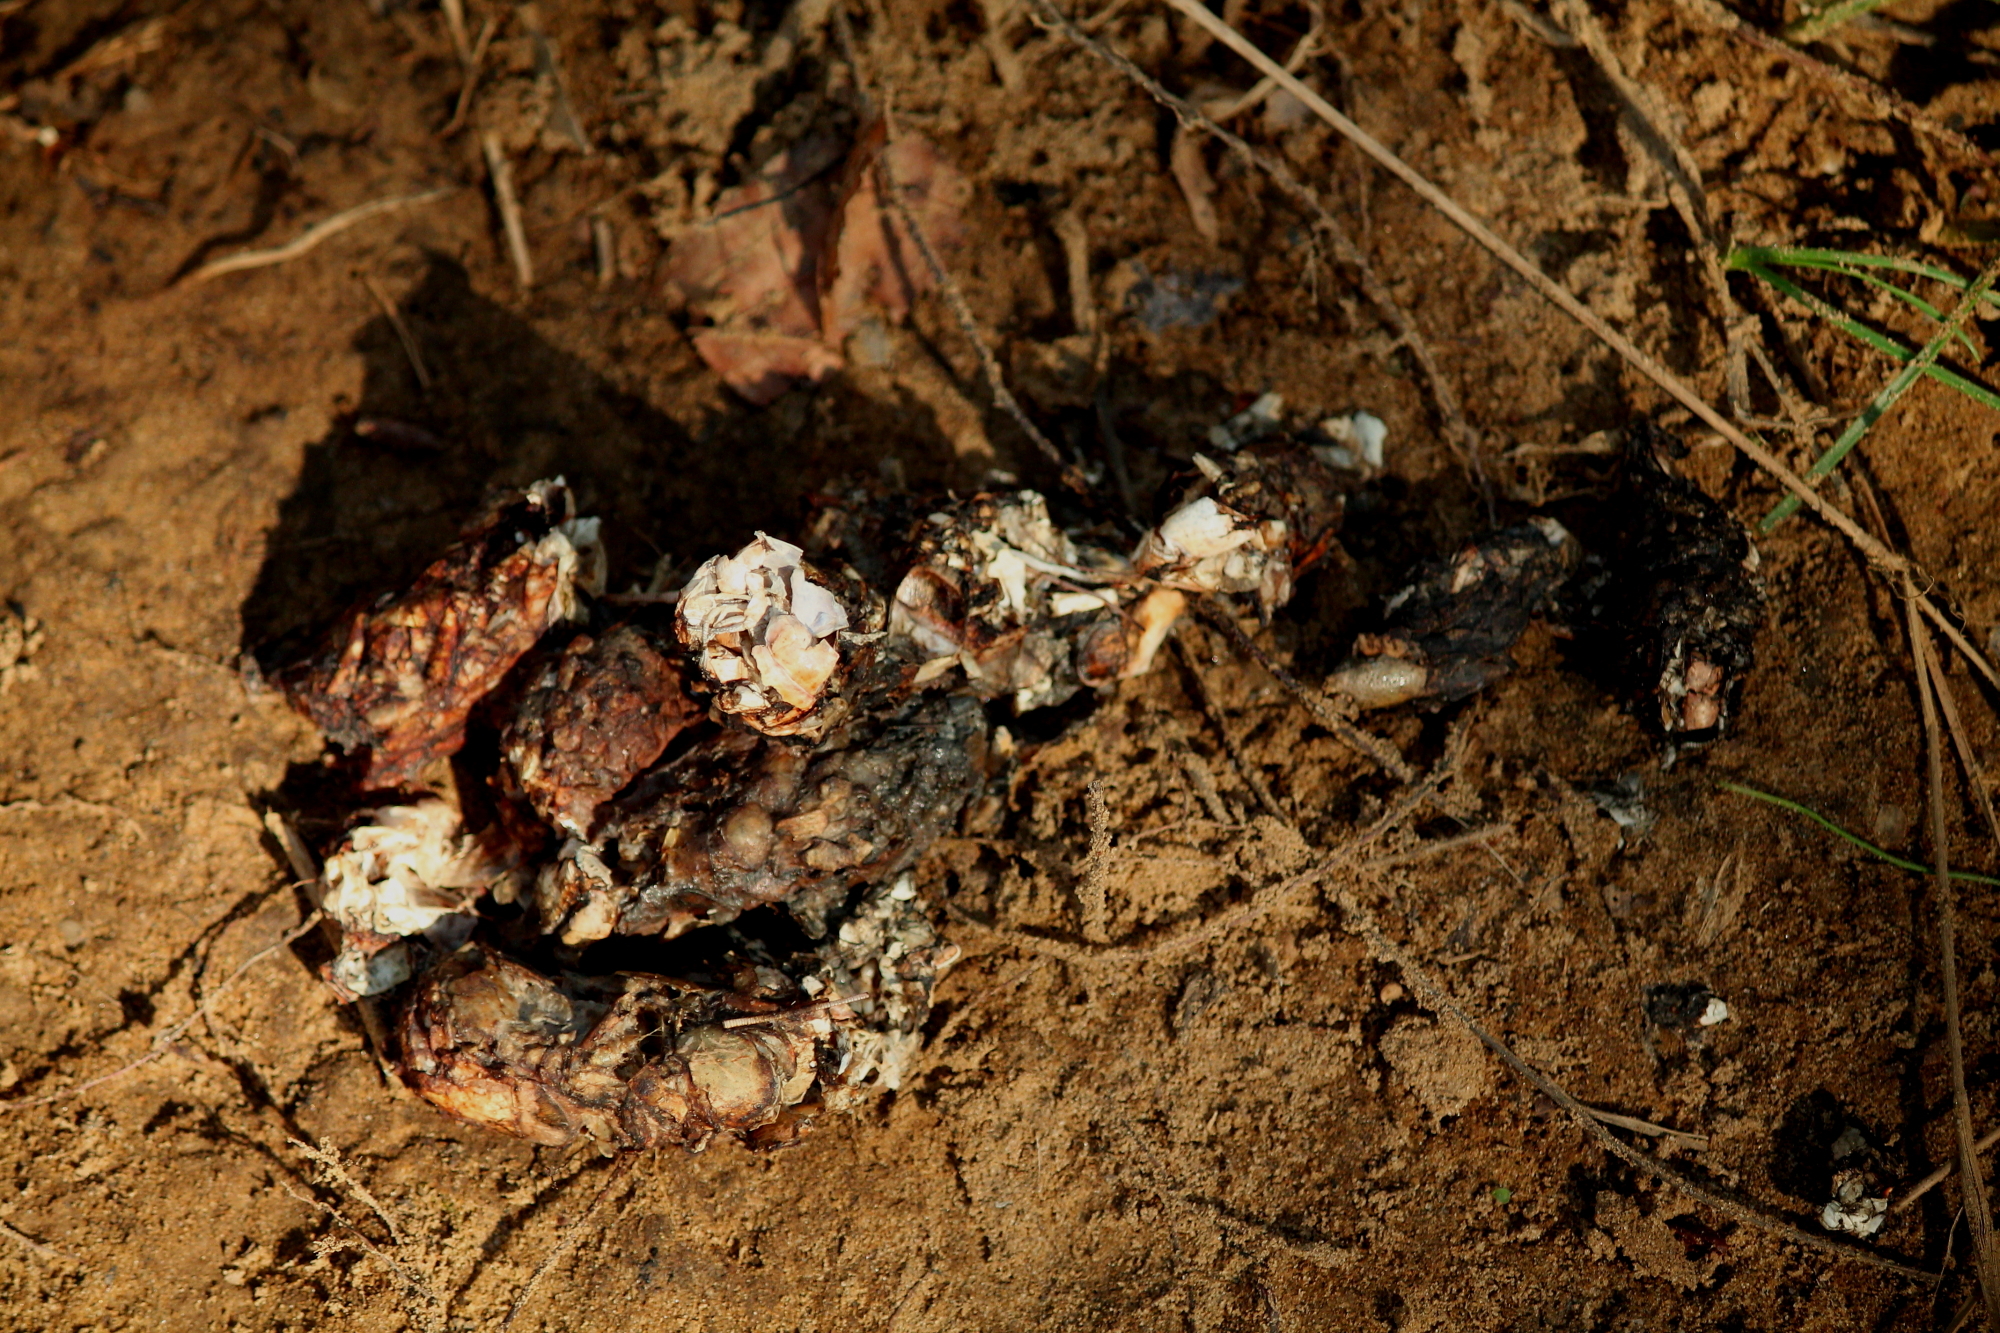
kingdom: Animalia
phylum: Chordata
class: Mammalia
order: Carnivora
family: Mustelidae
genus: Lontra
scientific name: Lontra canadensis
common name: North american river otter
